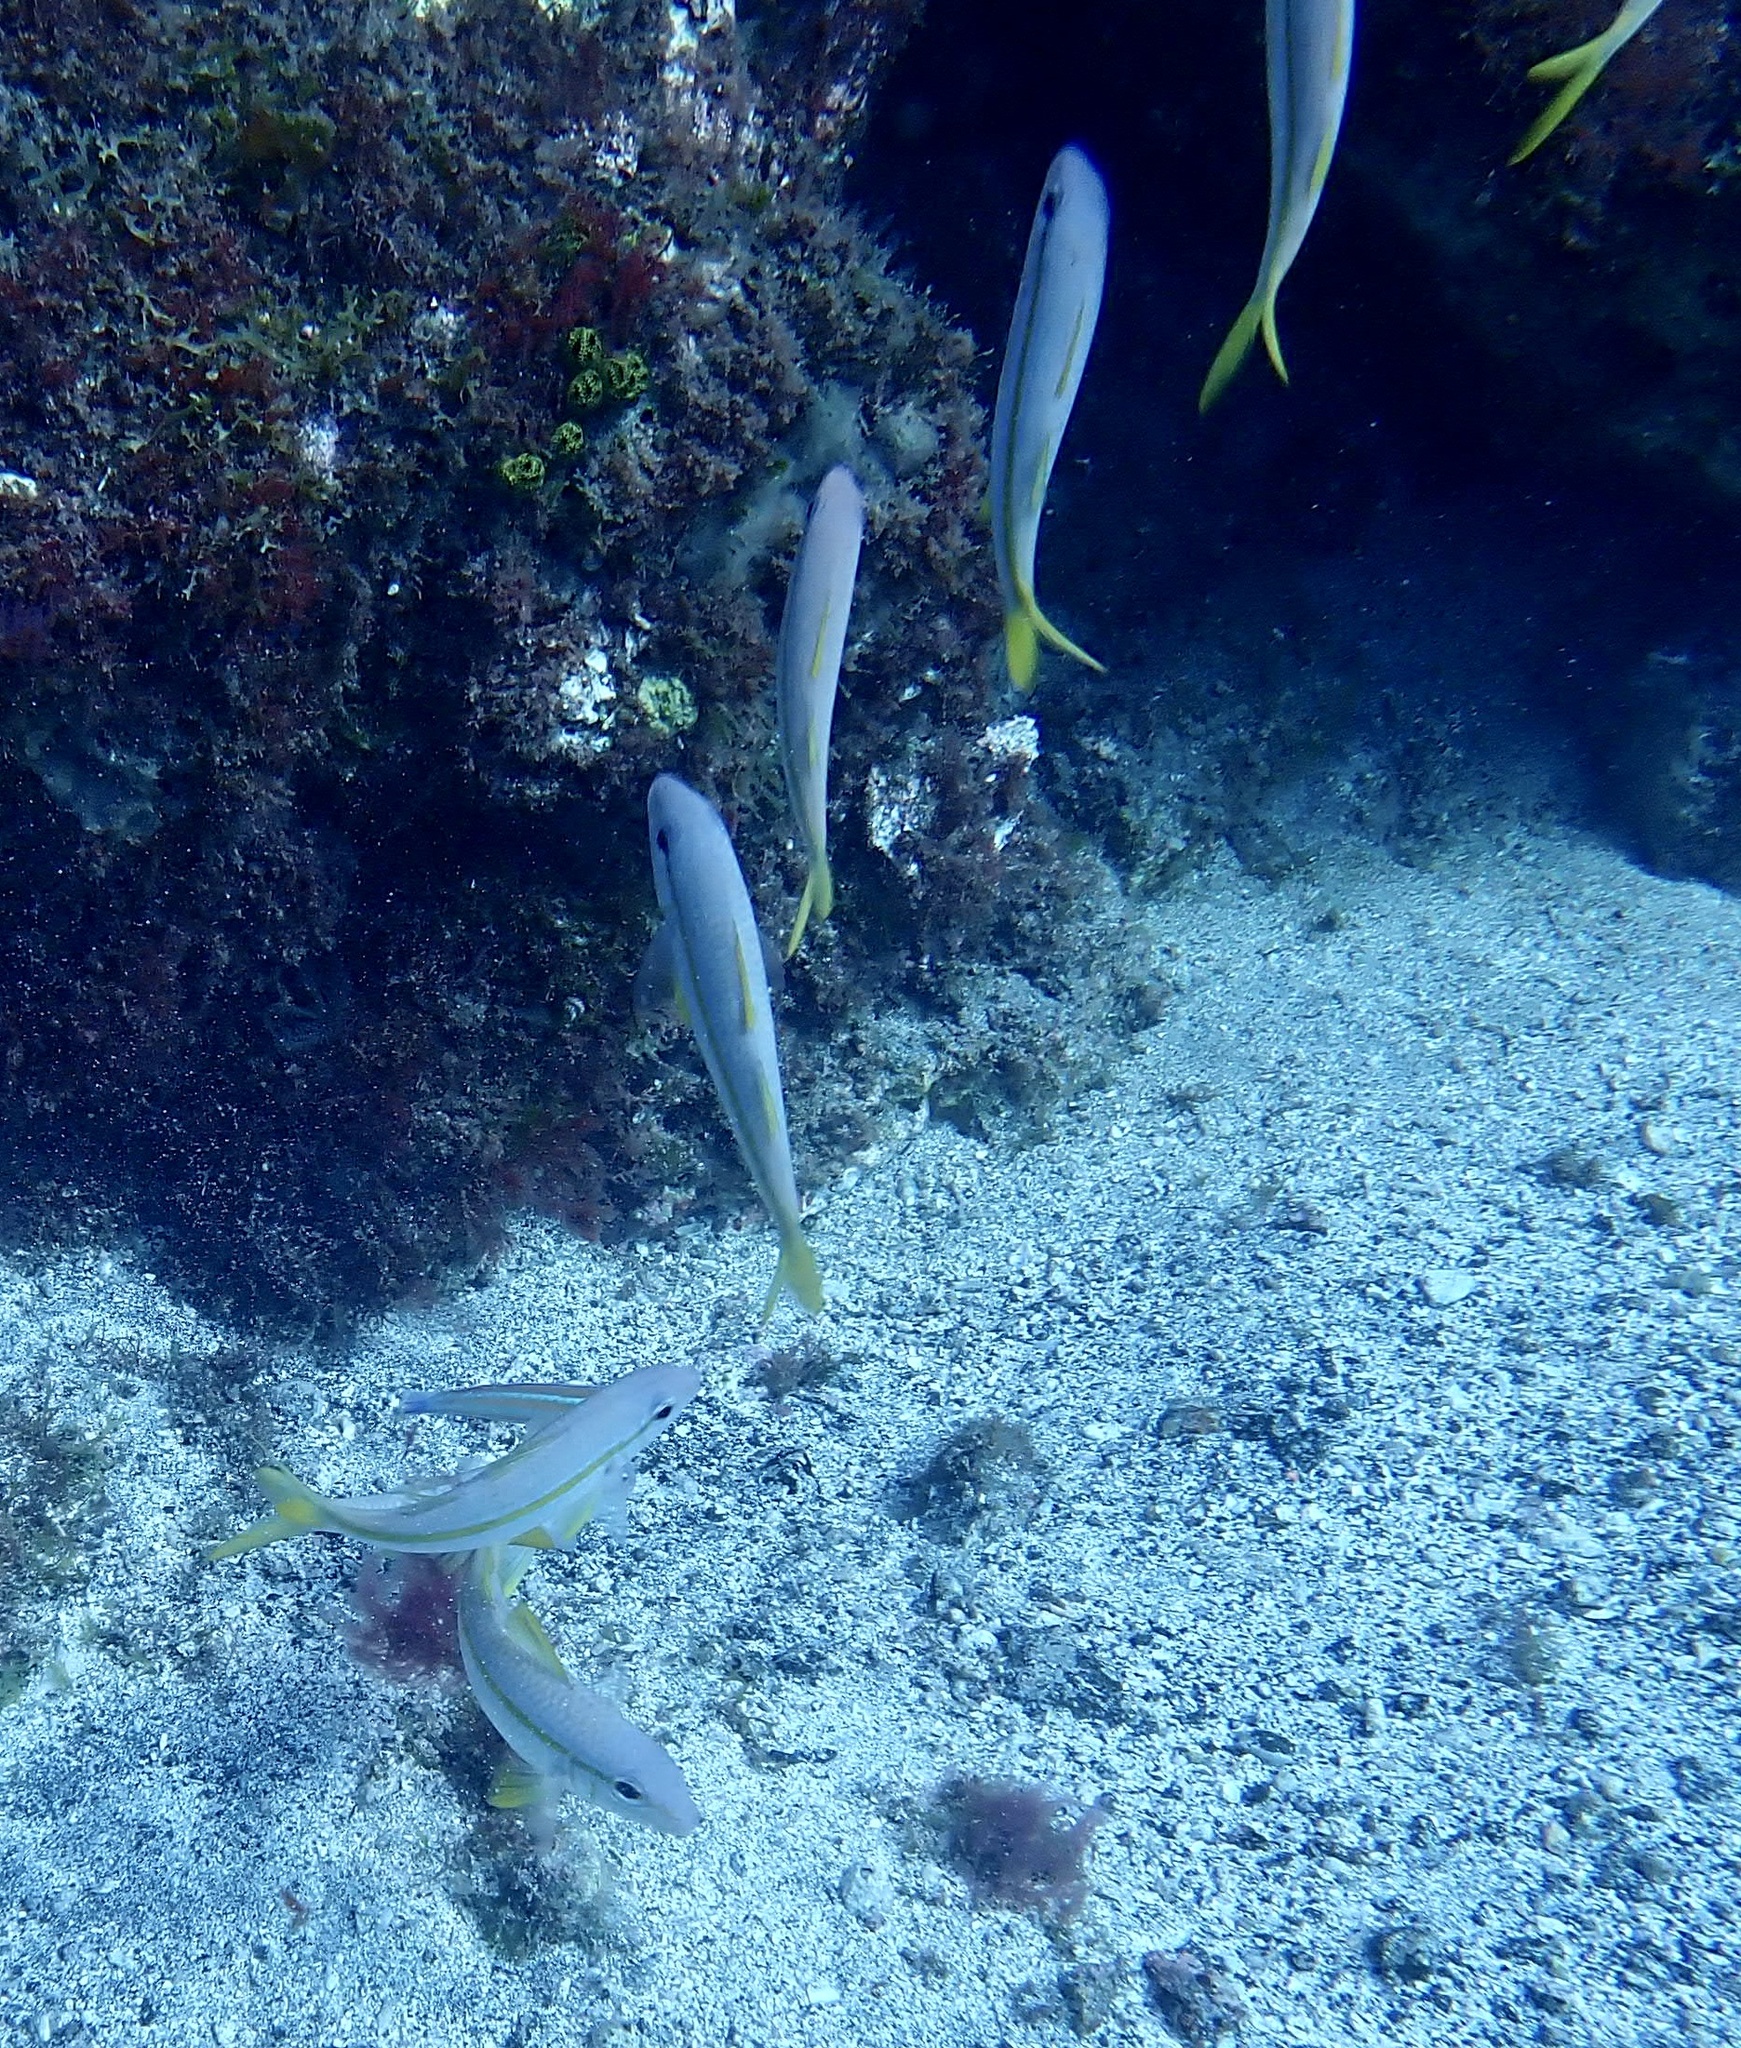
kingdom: Animalia
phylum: Chordata
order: Perciformes
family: Mullidae
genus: Mulloidichthys
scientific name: Mulloidichthys martinicus
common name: Yellow goatfish
